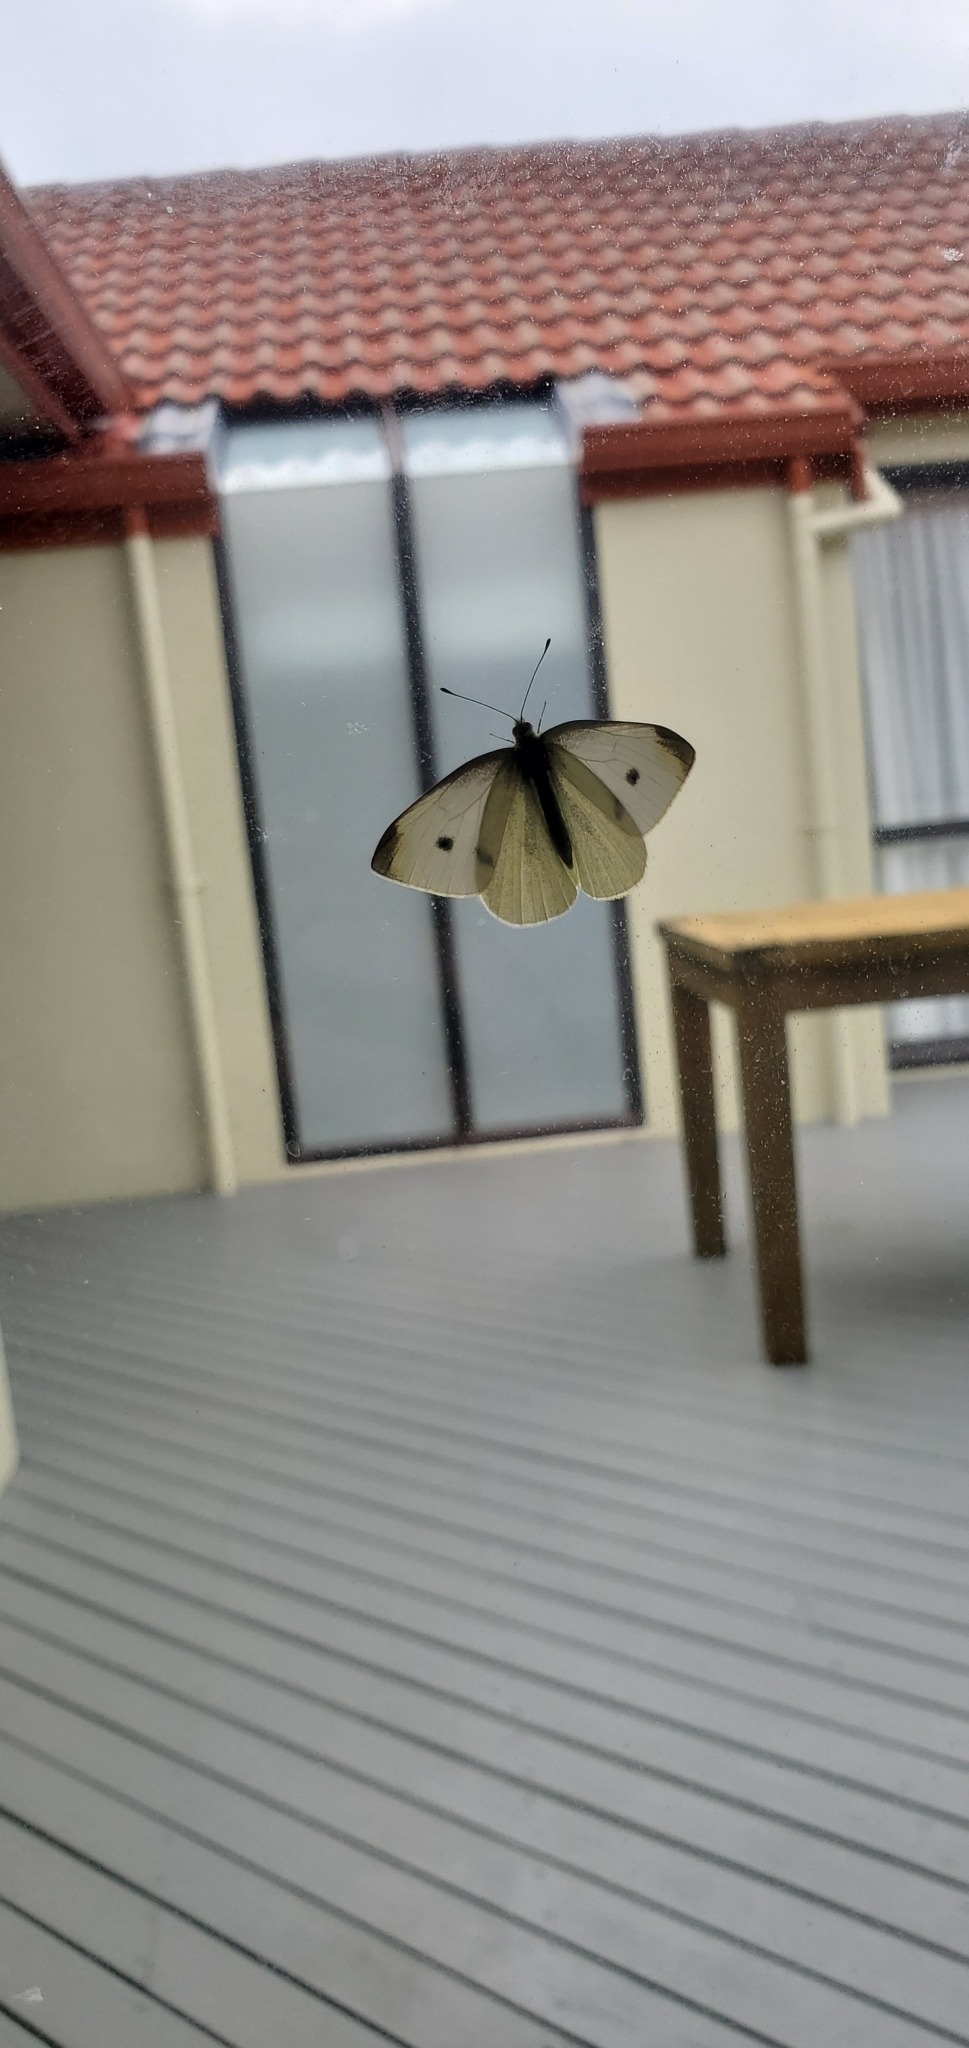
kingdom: Animalia
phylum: Arthropoda
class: Insecta
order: Lepidoptera
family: Pieridae
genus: Pieris
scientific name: Pieris rapae
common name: Small white
